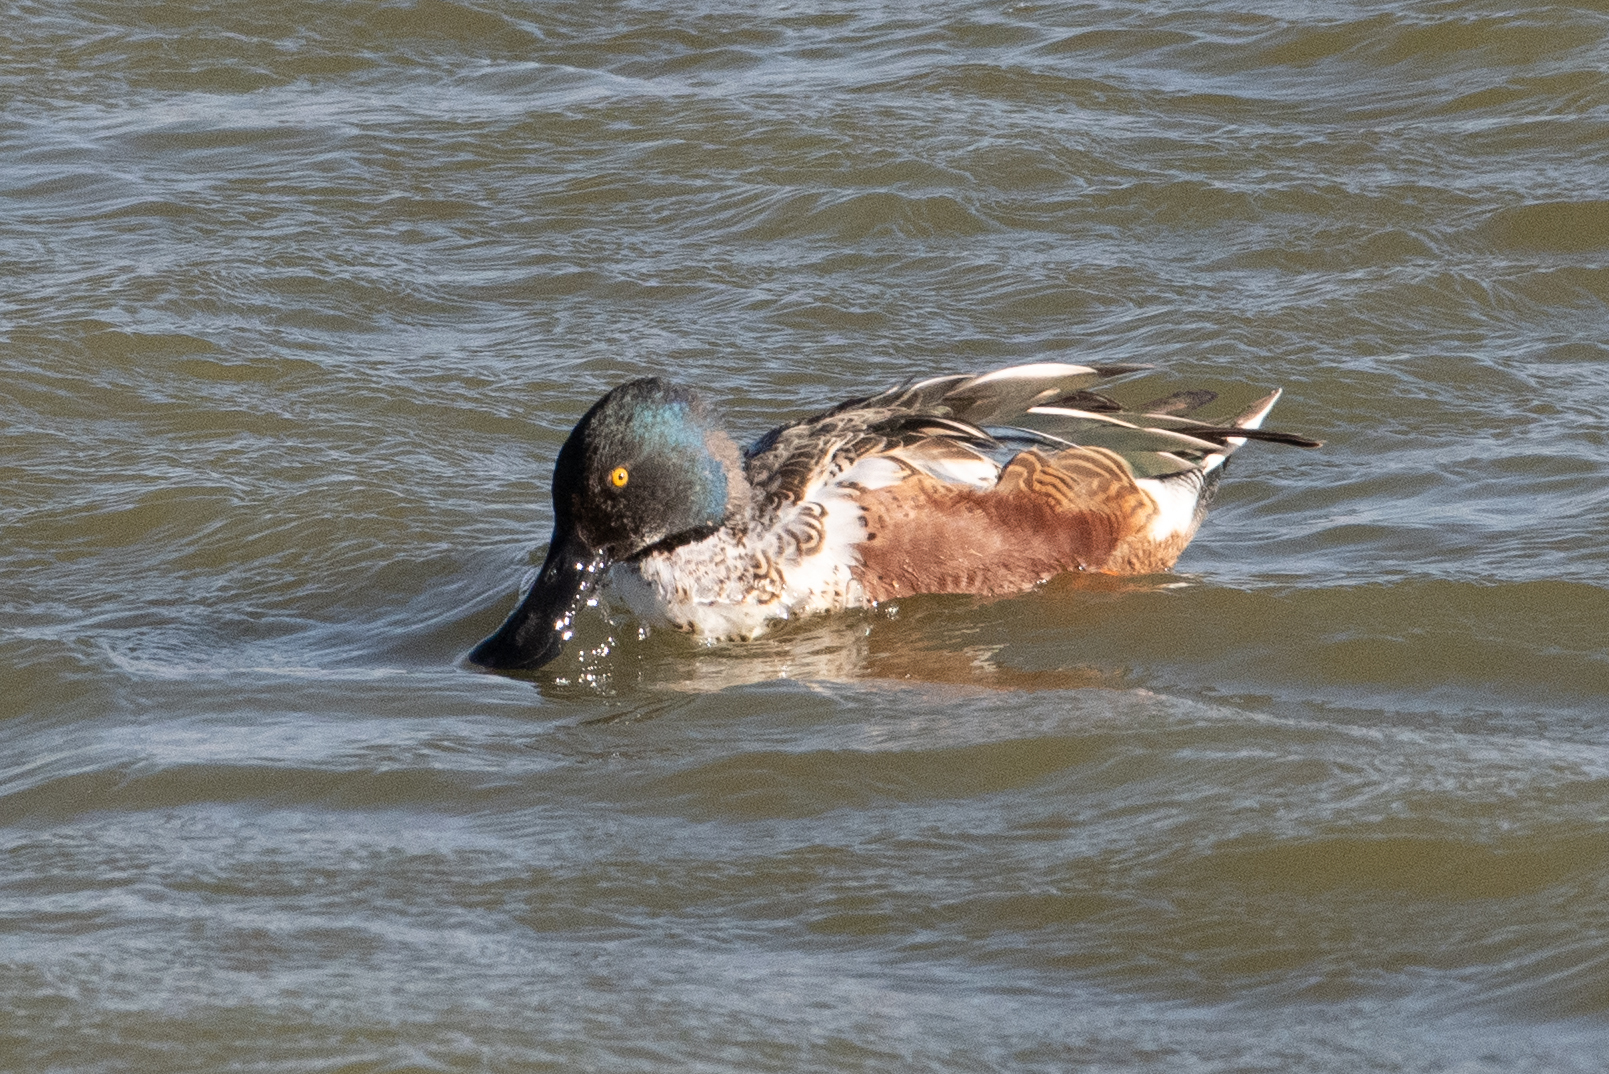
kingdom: Animalia
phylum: Chordata
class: Aves
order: Anseriformes
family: Anatidae
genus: Spatula
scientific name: Spatula clypeata
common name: Northern shoveler
